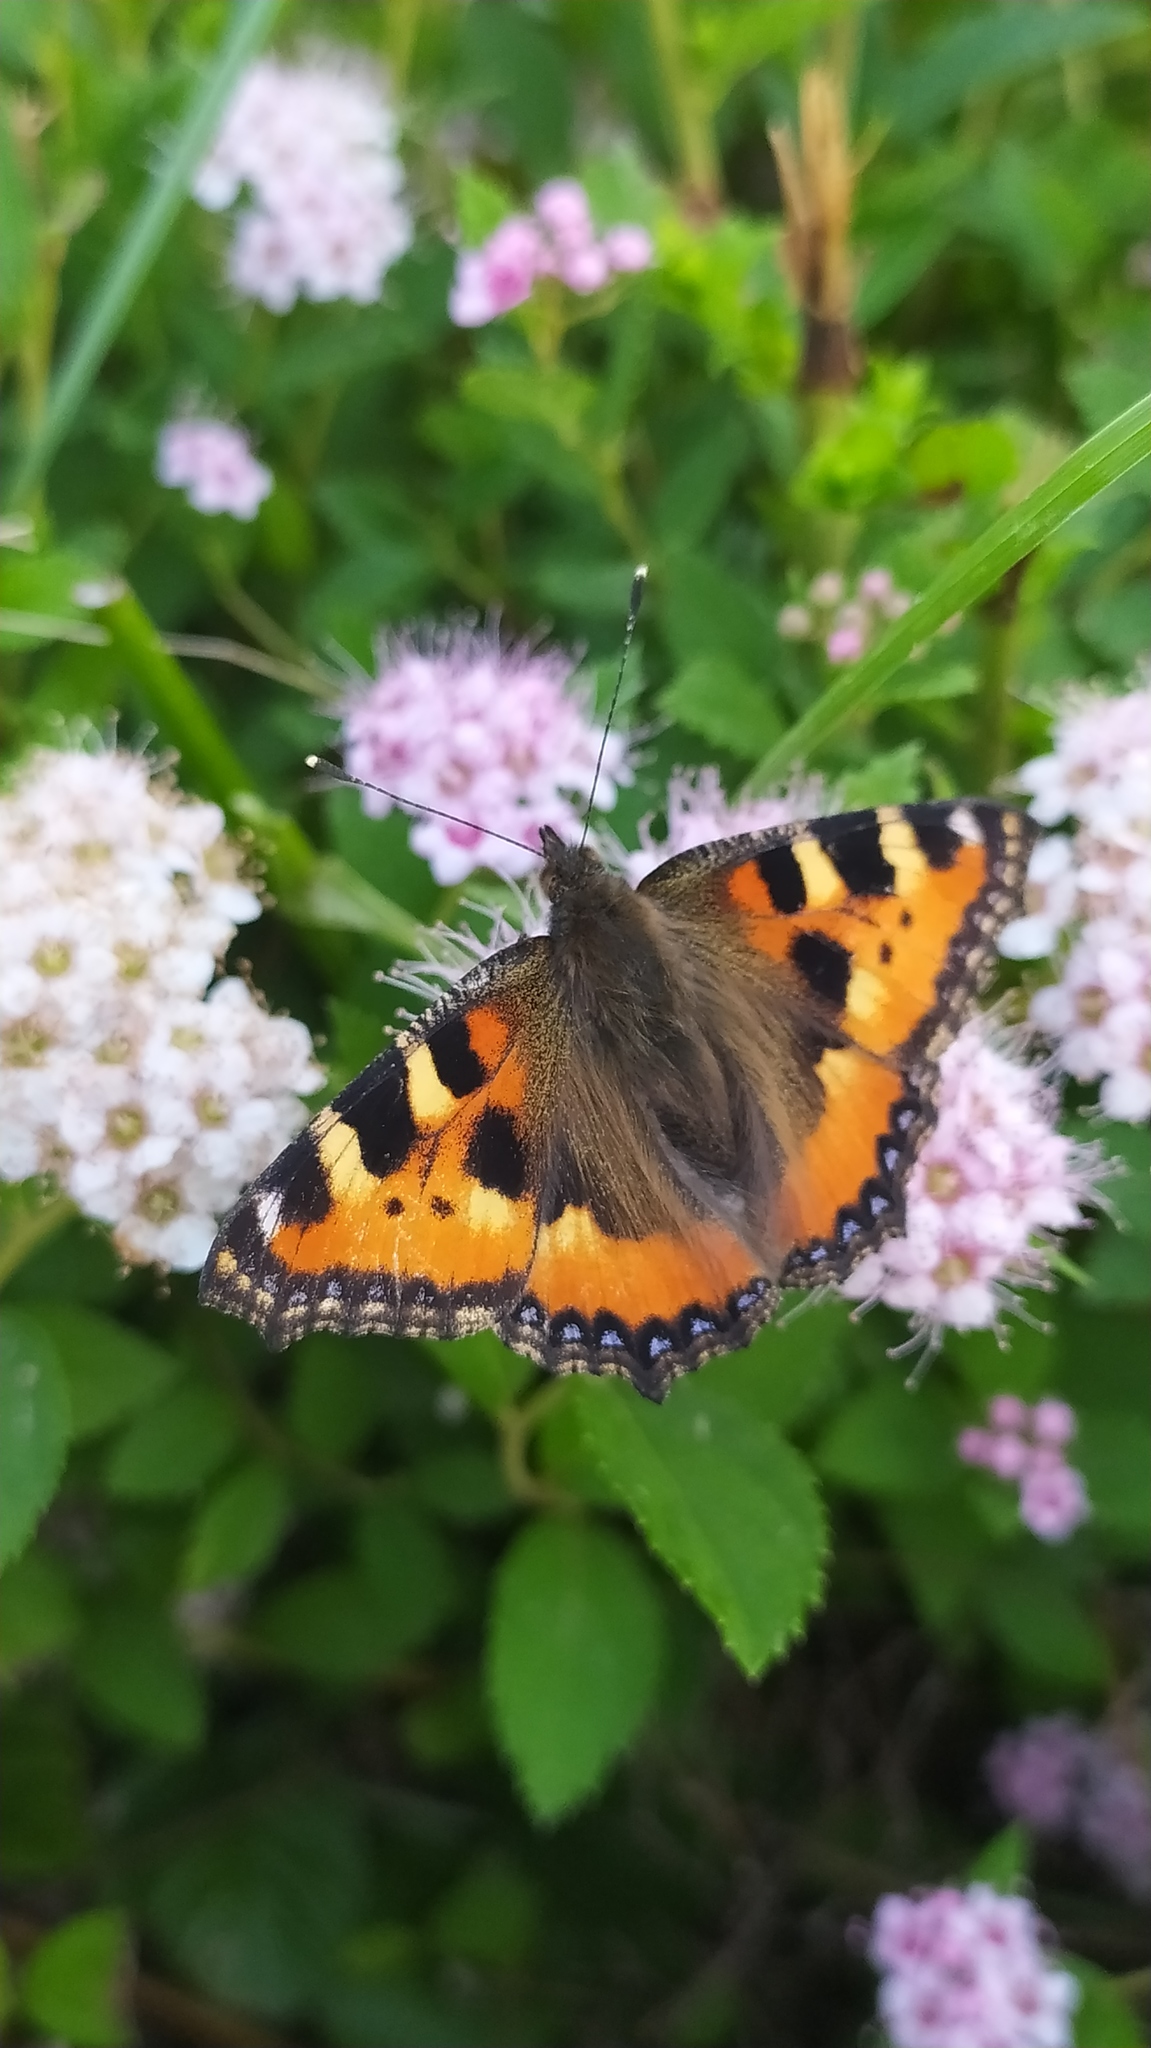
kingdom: Animalia
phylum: Arthropoda
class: Insecta
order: Lepidoptera
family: Nymphalidae
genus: Aglais
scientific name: Aglais urticae
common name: Small tortoiseshell
